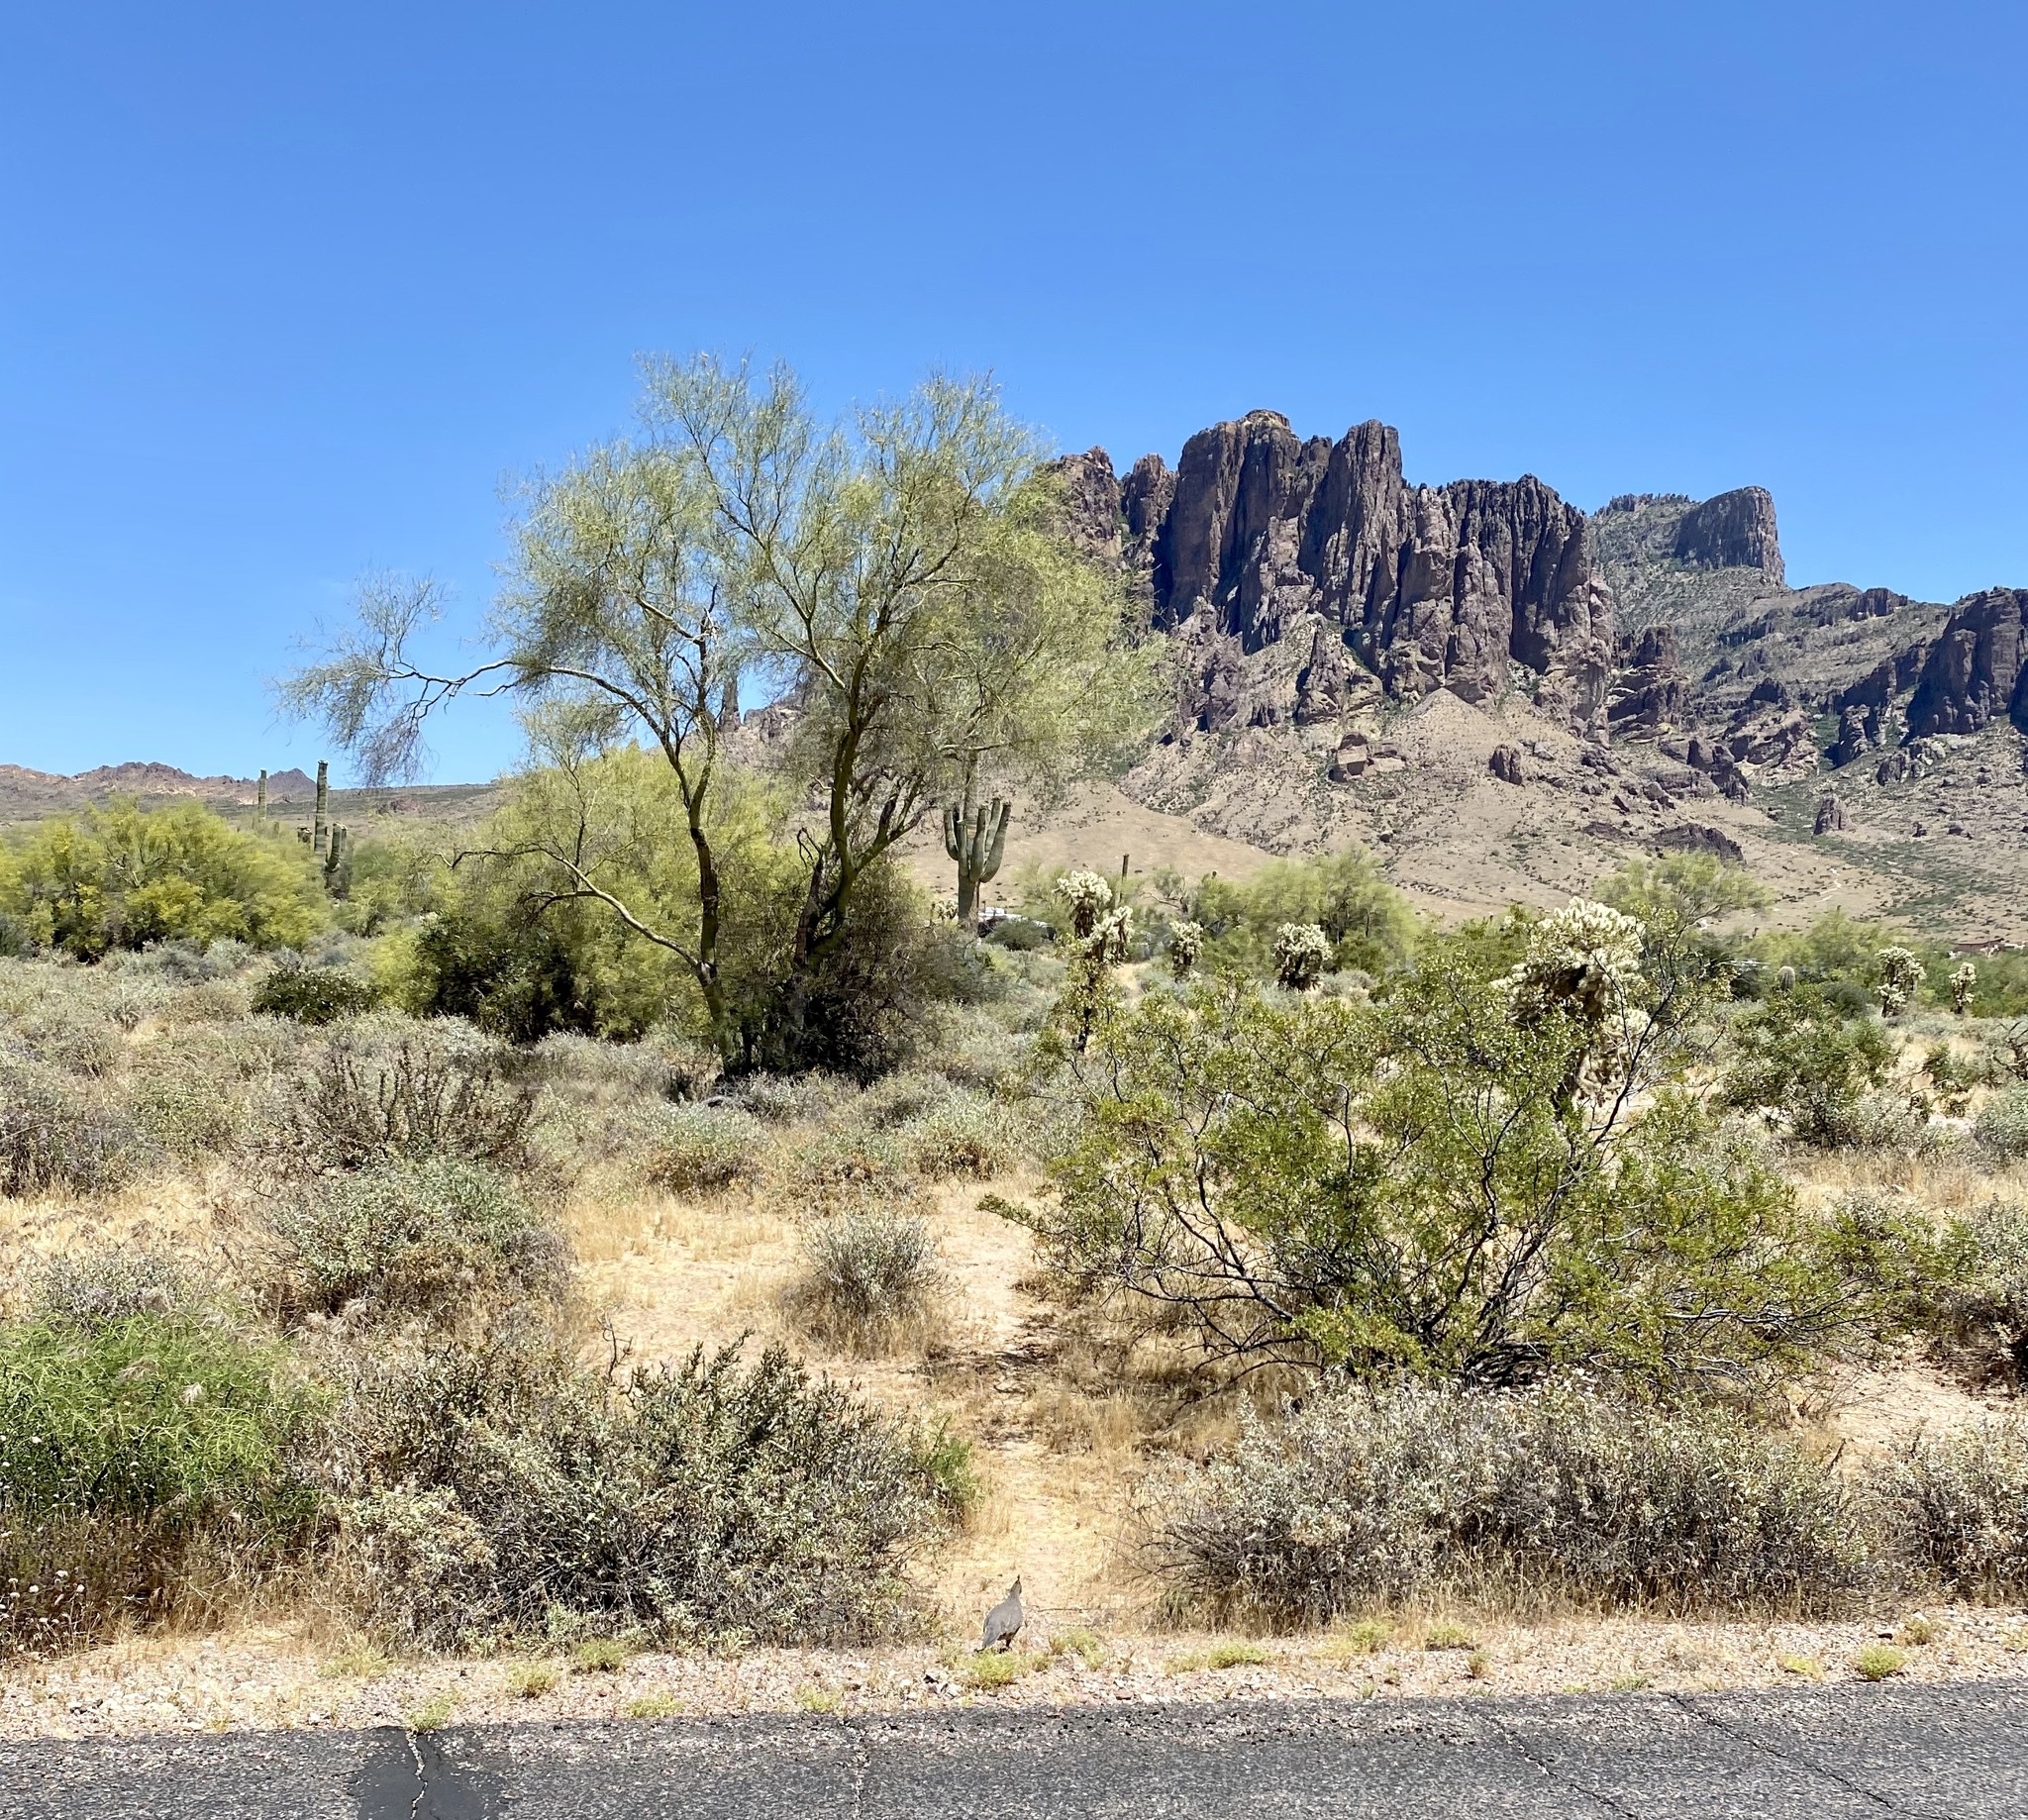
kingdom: Animalia
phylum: Chordata
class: Aves
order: Galliformes
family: Odontophoridae
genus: Callipepla
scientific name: Callipepla gambelii
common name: Gambel's quail
